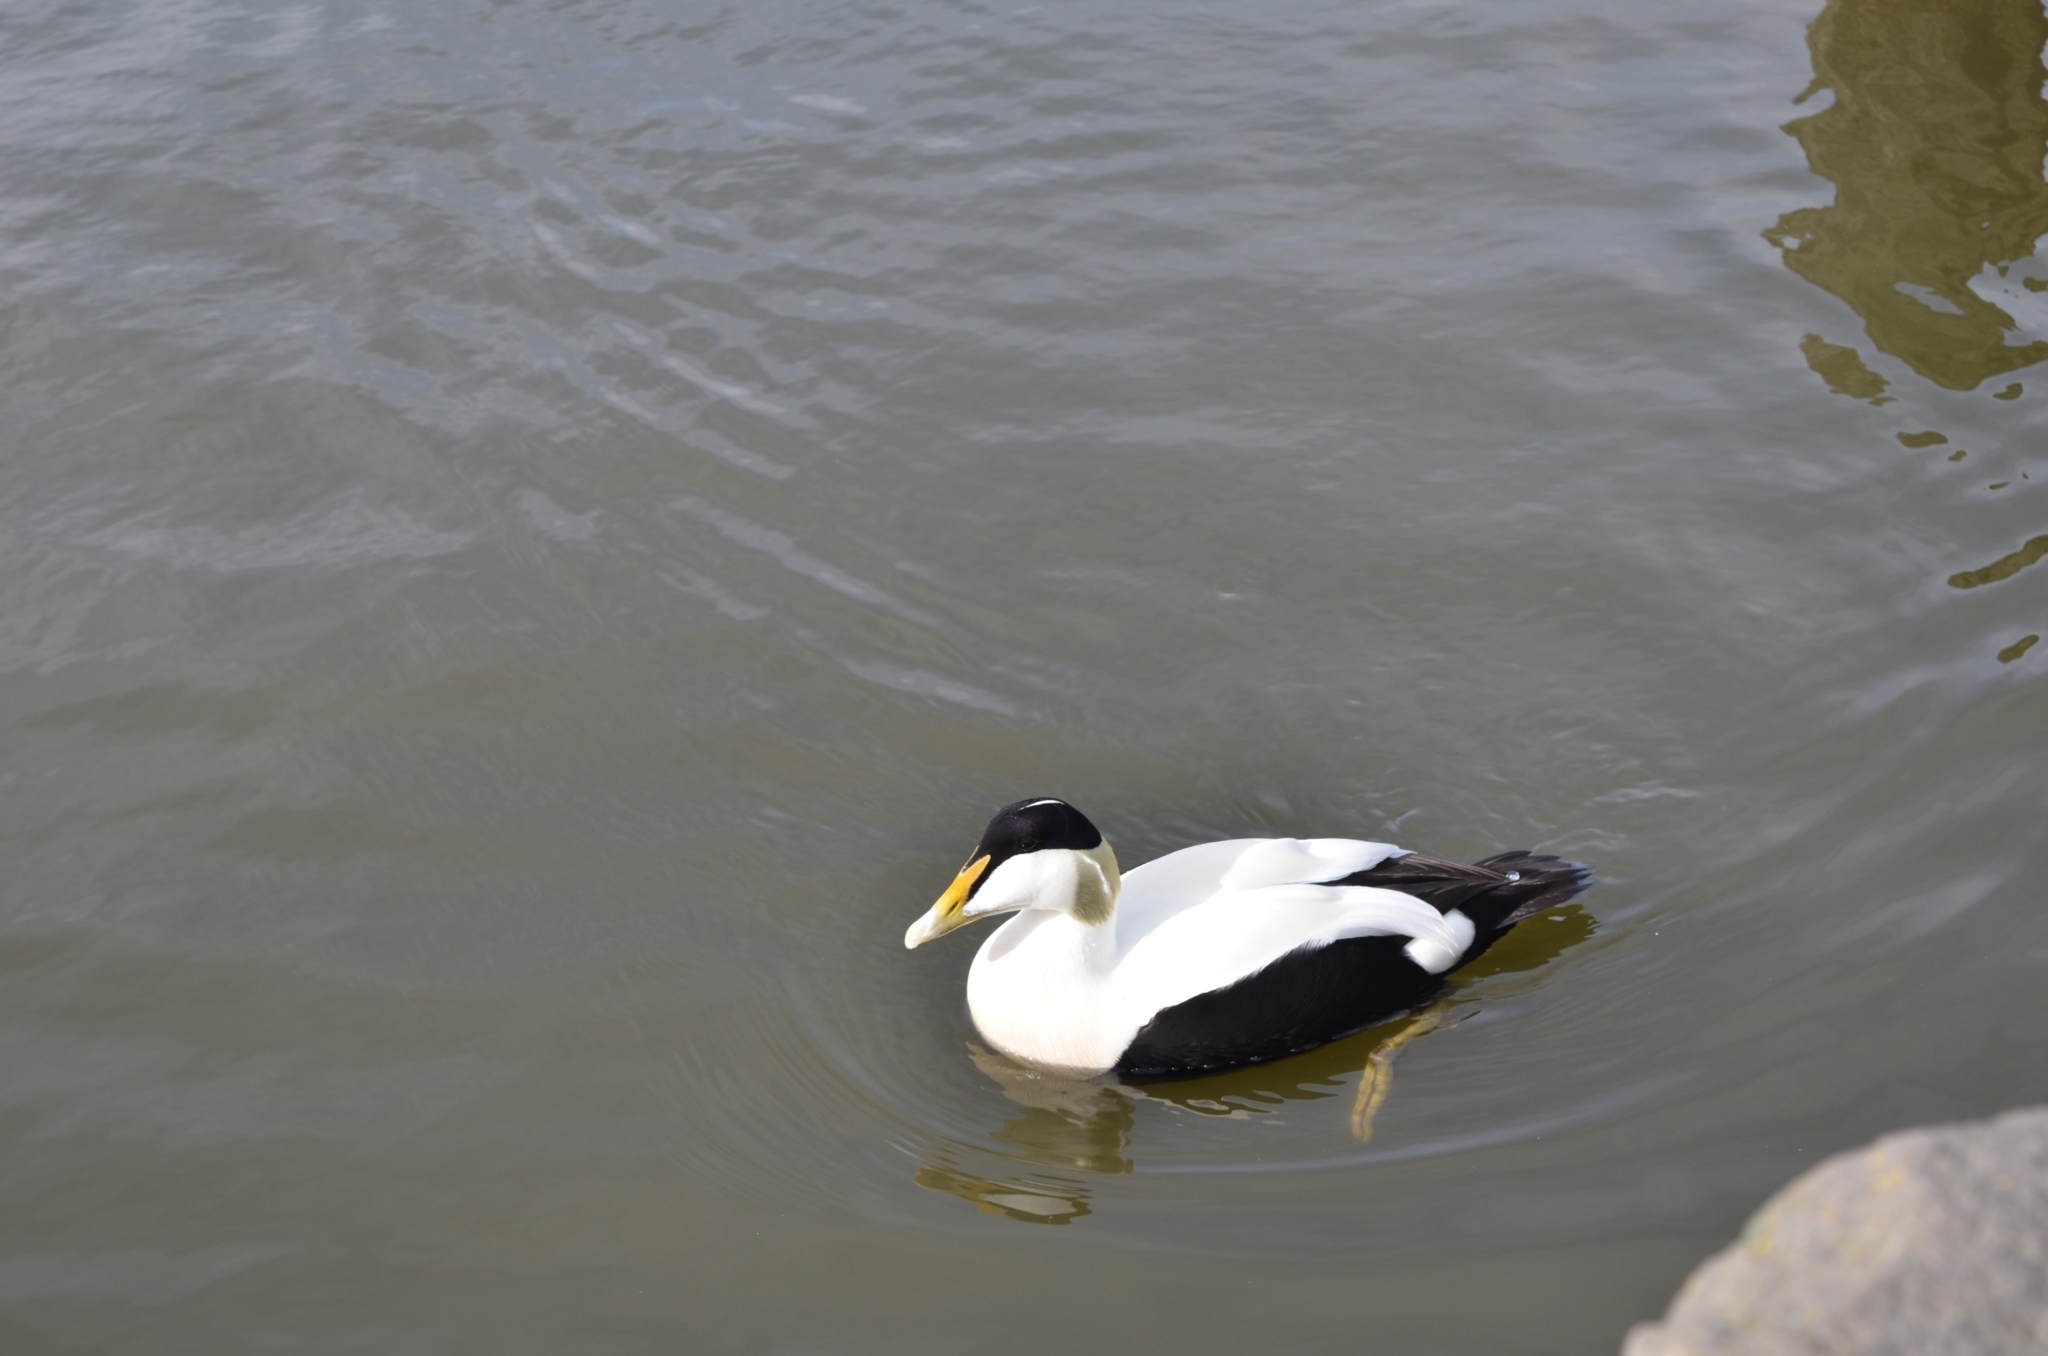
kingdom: Animalia
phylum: Chordata
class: Aves
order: Anseriformes
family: Anatidae
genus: Somateria
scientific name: Somateria mollissima
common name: Common eider
